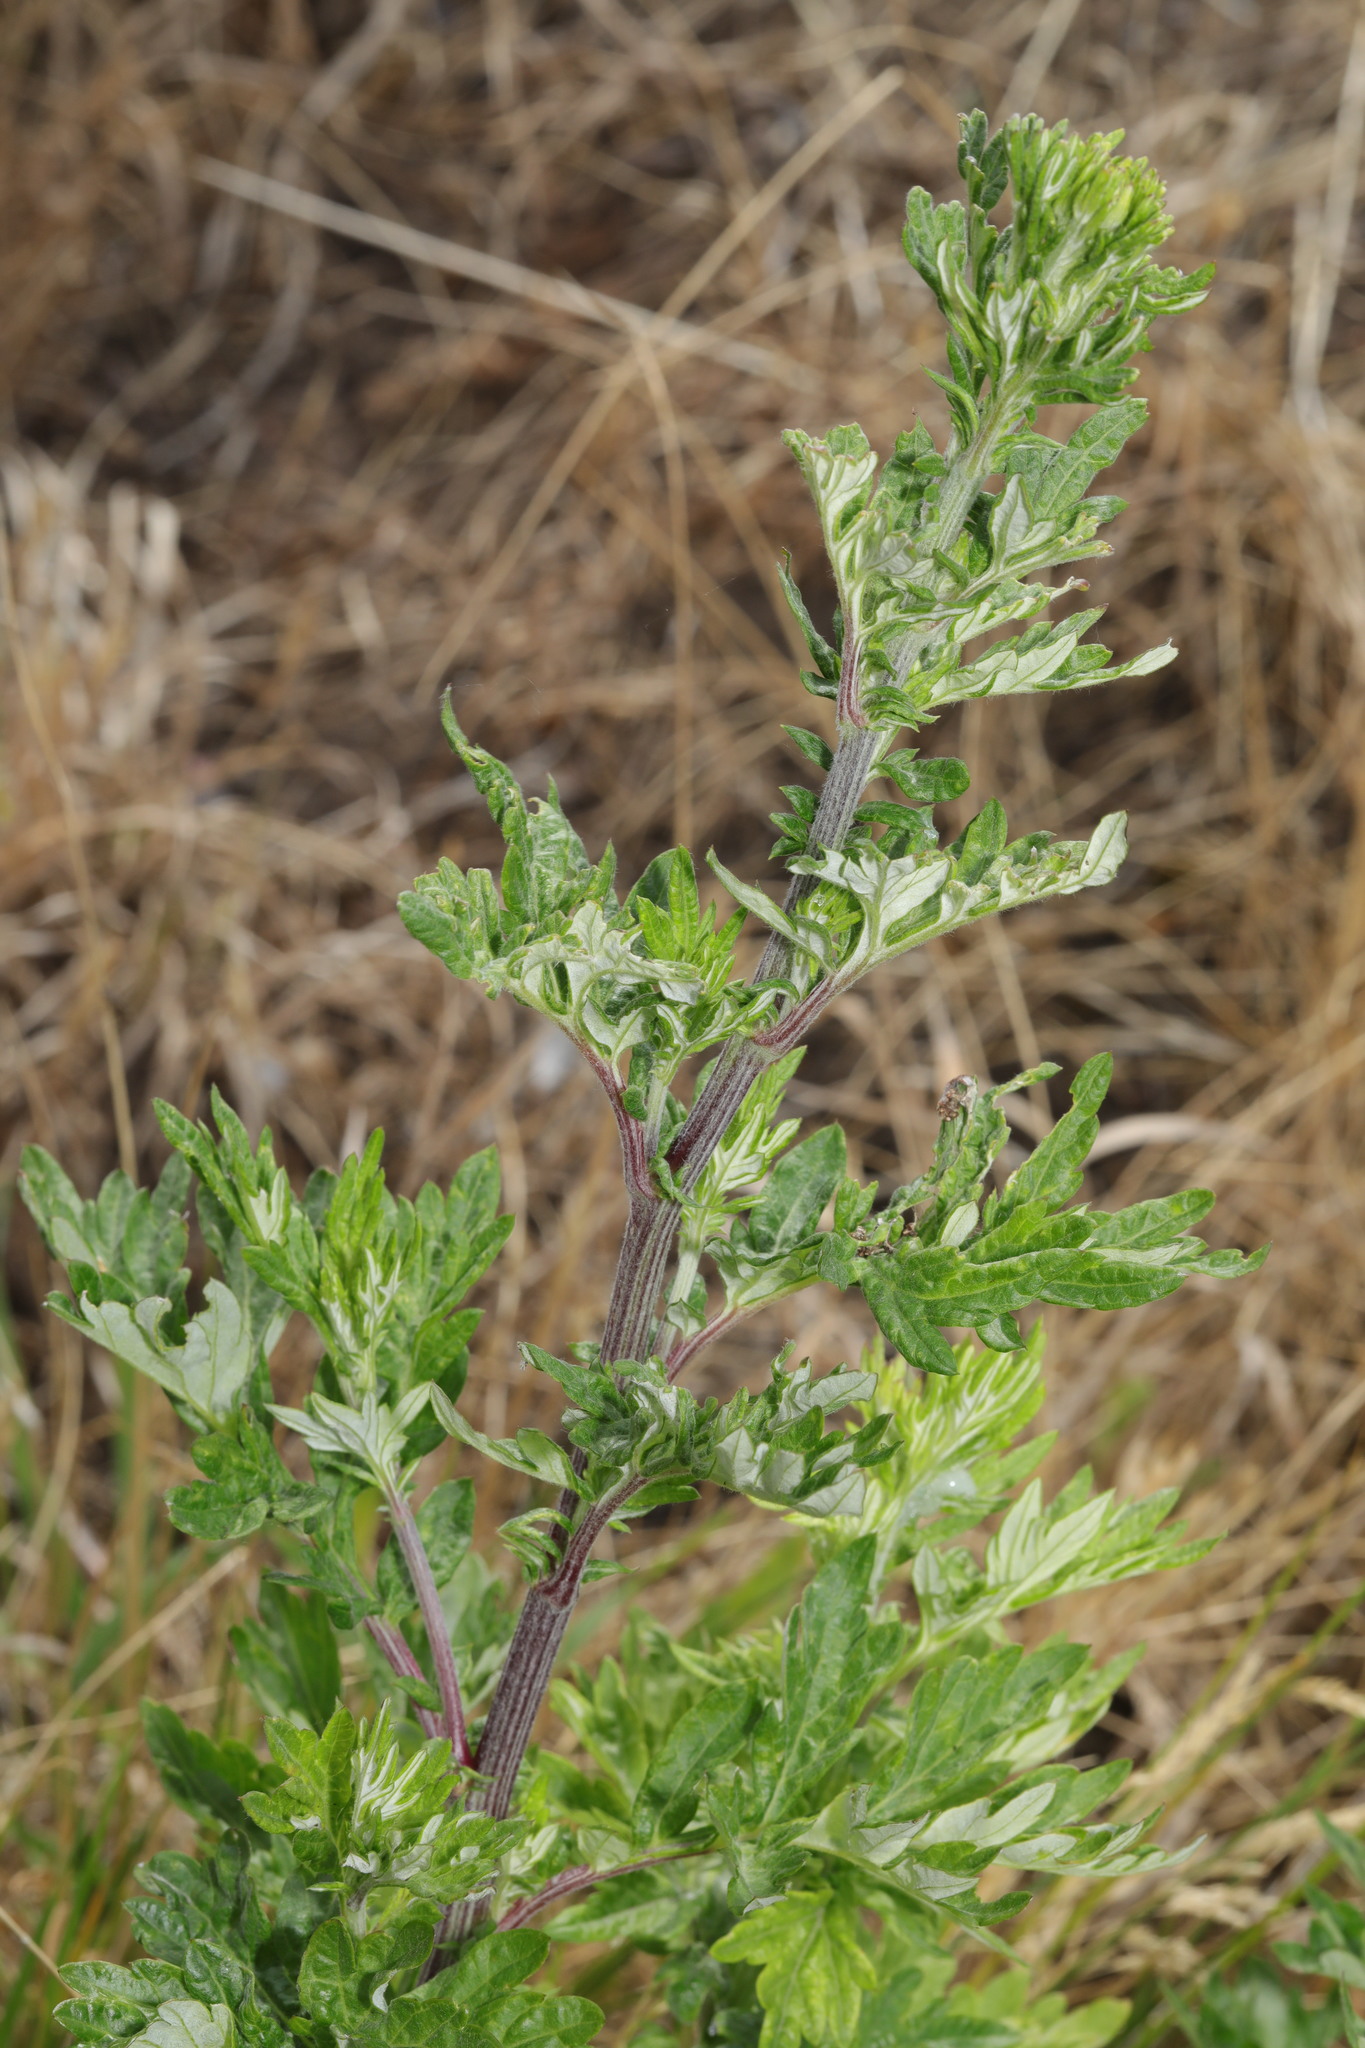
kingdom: Plantae
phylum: Tracheophyta
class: Magnoliopsida
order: Asterales
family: Asteraceae
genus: Artemisia
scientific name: Artemisia vulgaris
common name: Mugwort
